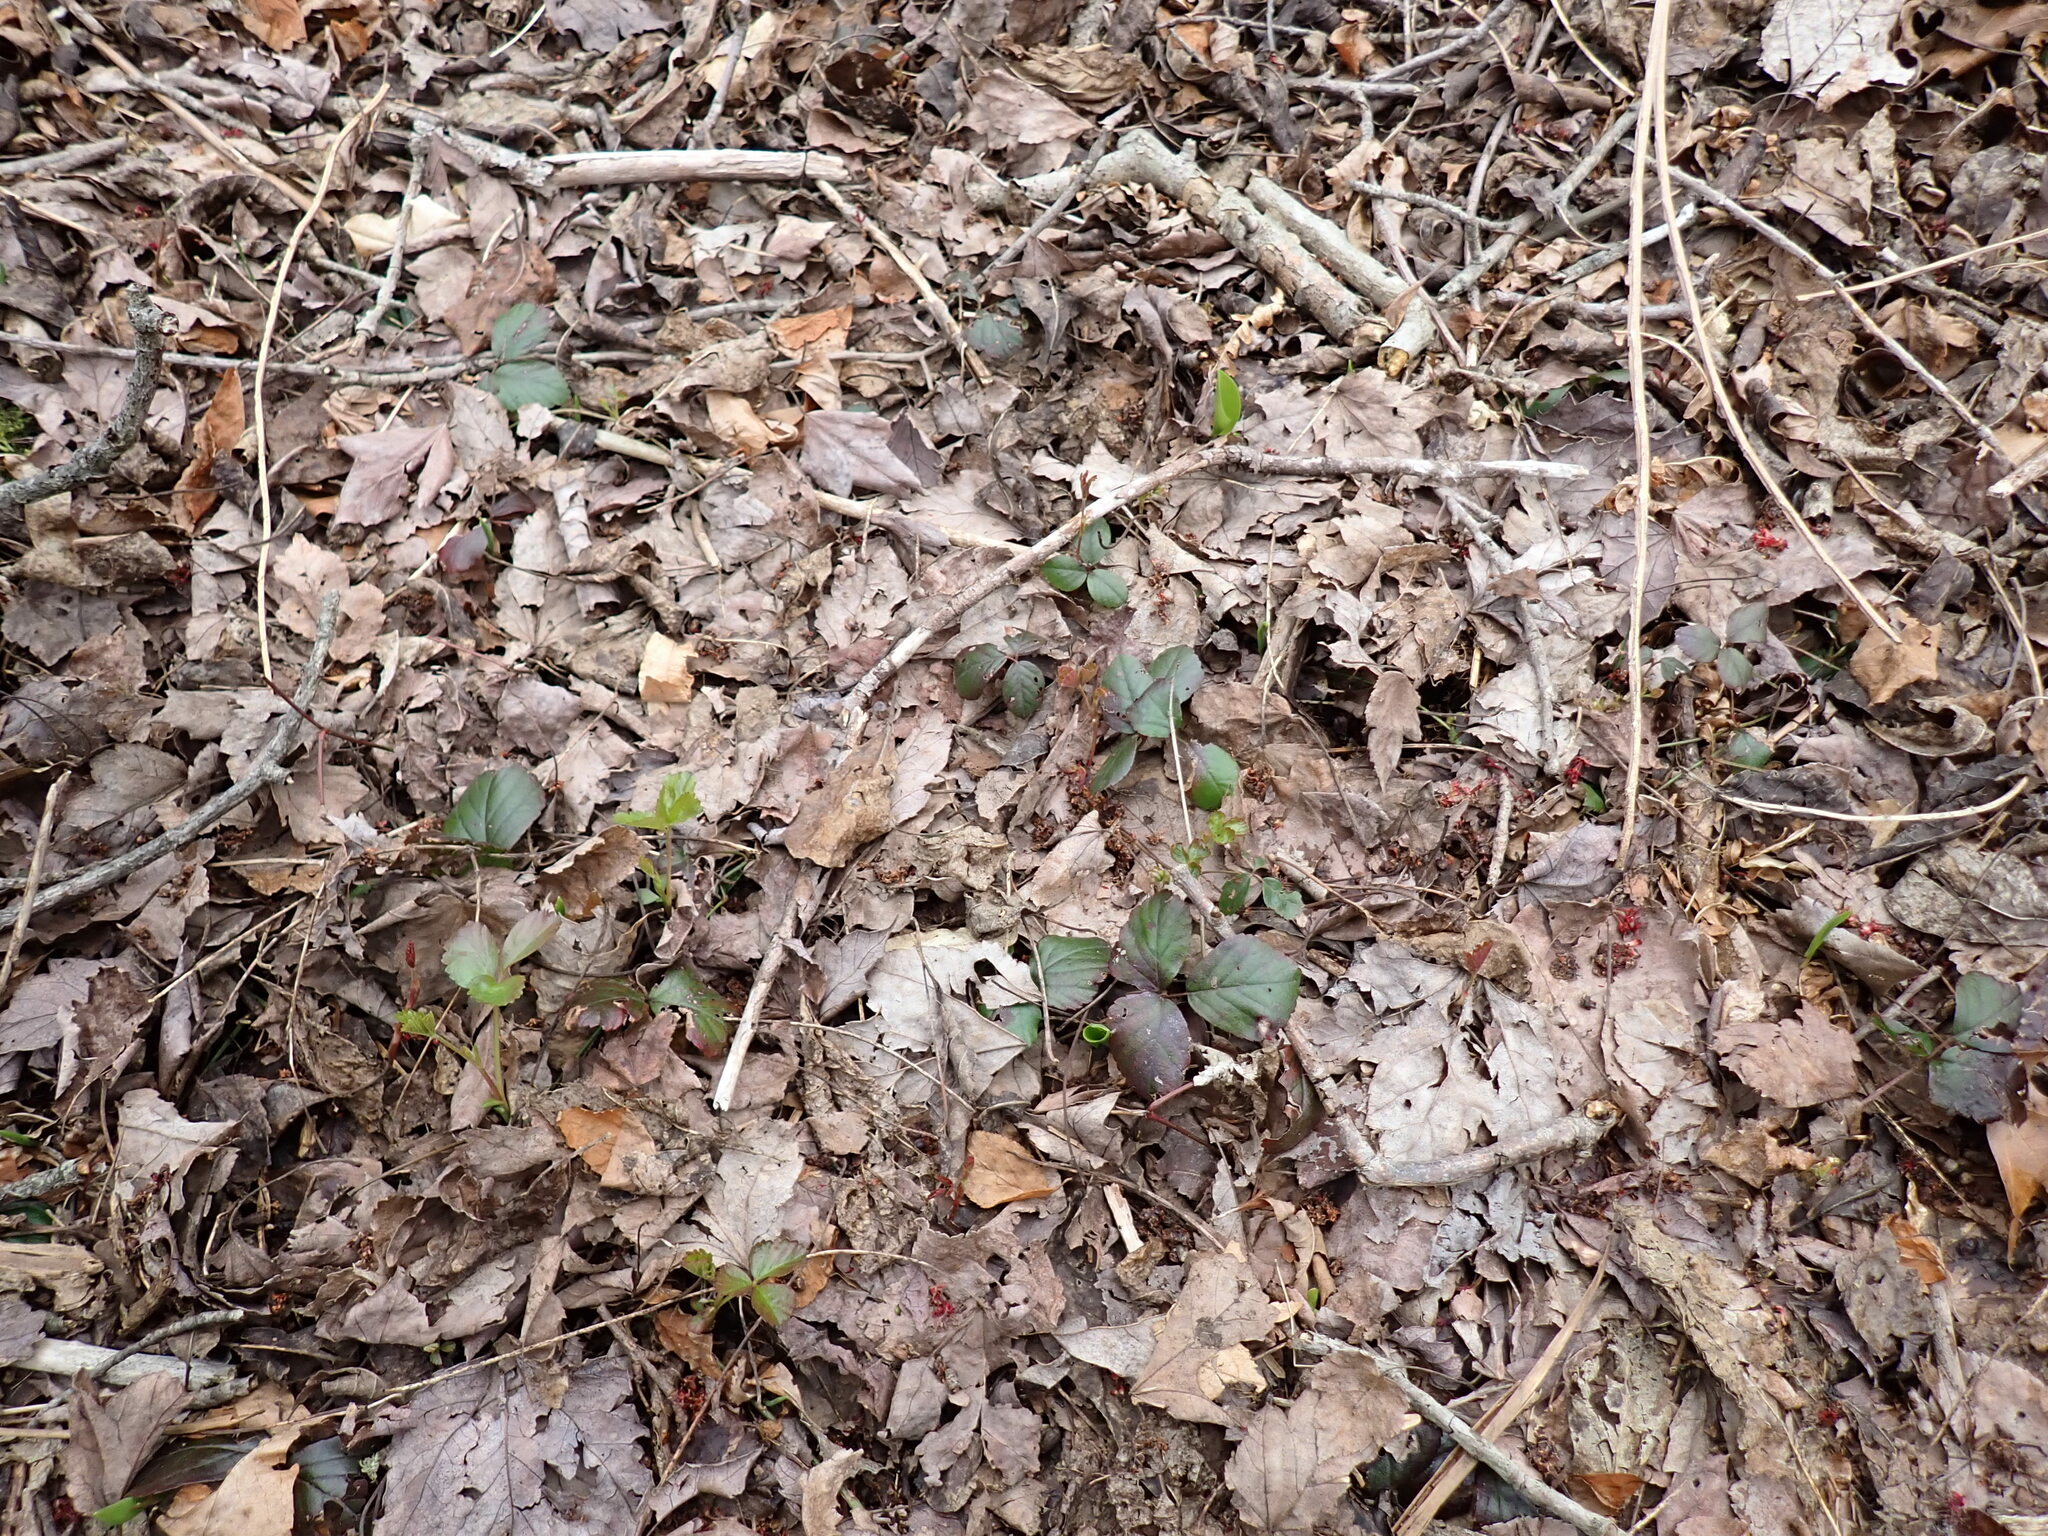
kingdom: Plantae
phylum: Tracheophyta
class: Magnoliopsida
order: Rosales
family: Rosaceae
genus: Rubus
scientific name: Rubus hispidus
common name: Running blackberry
